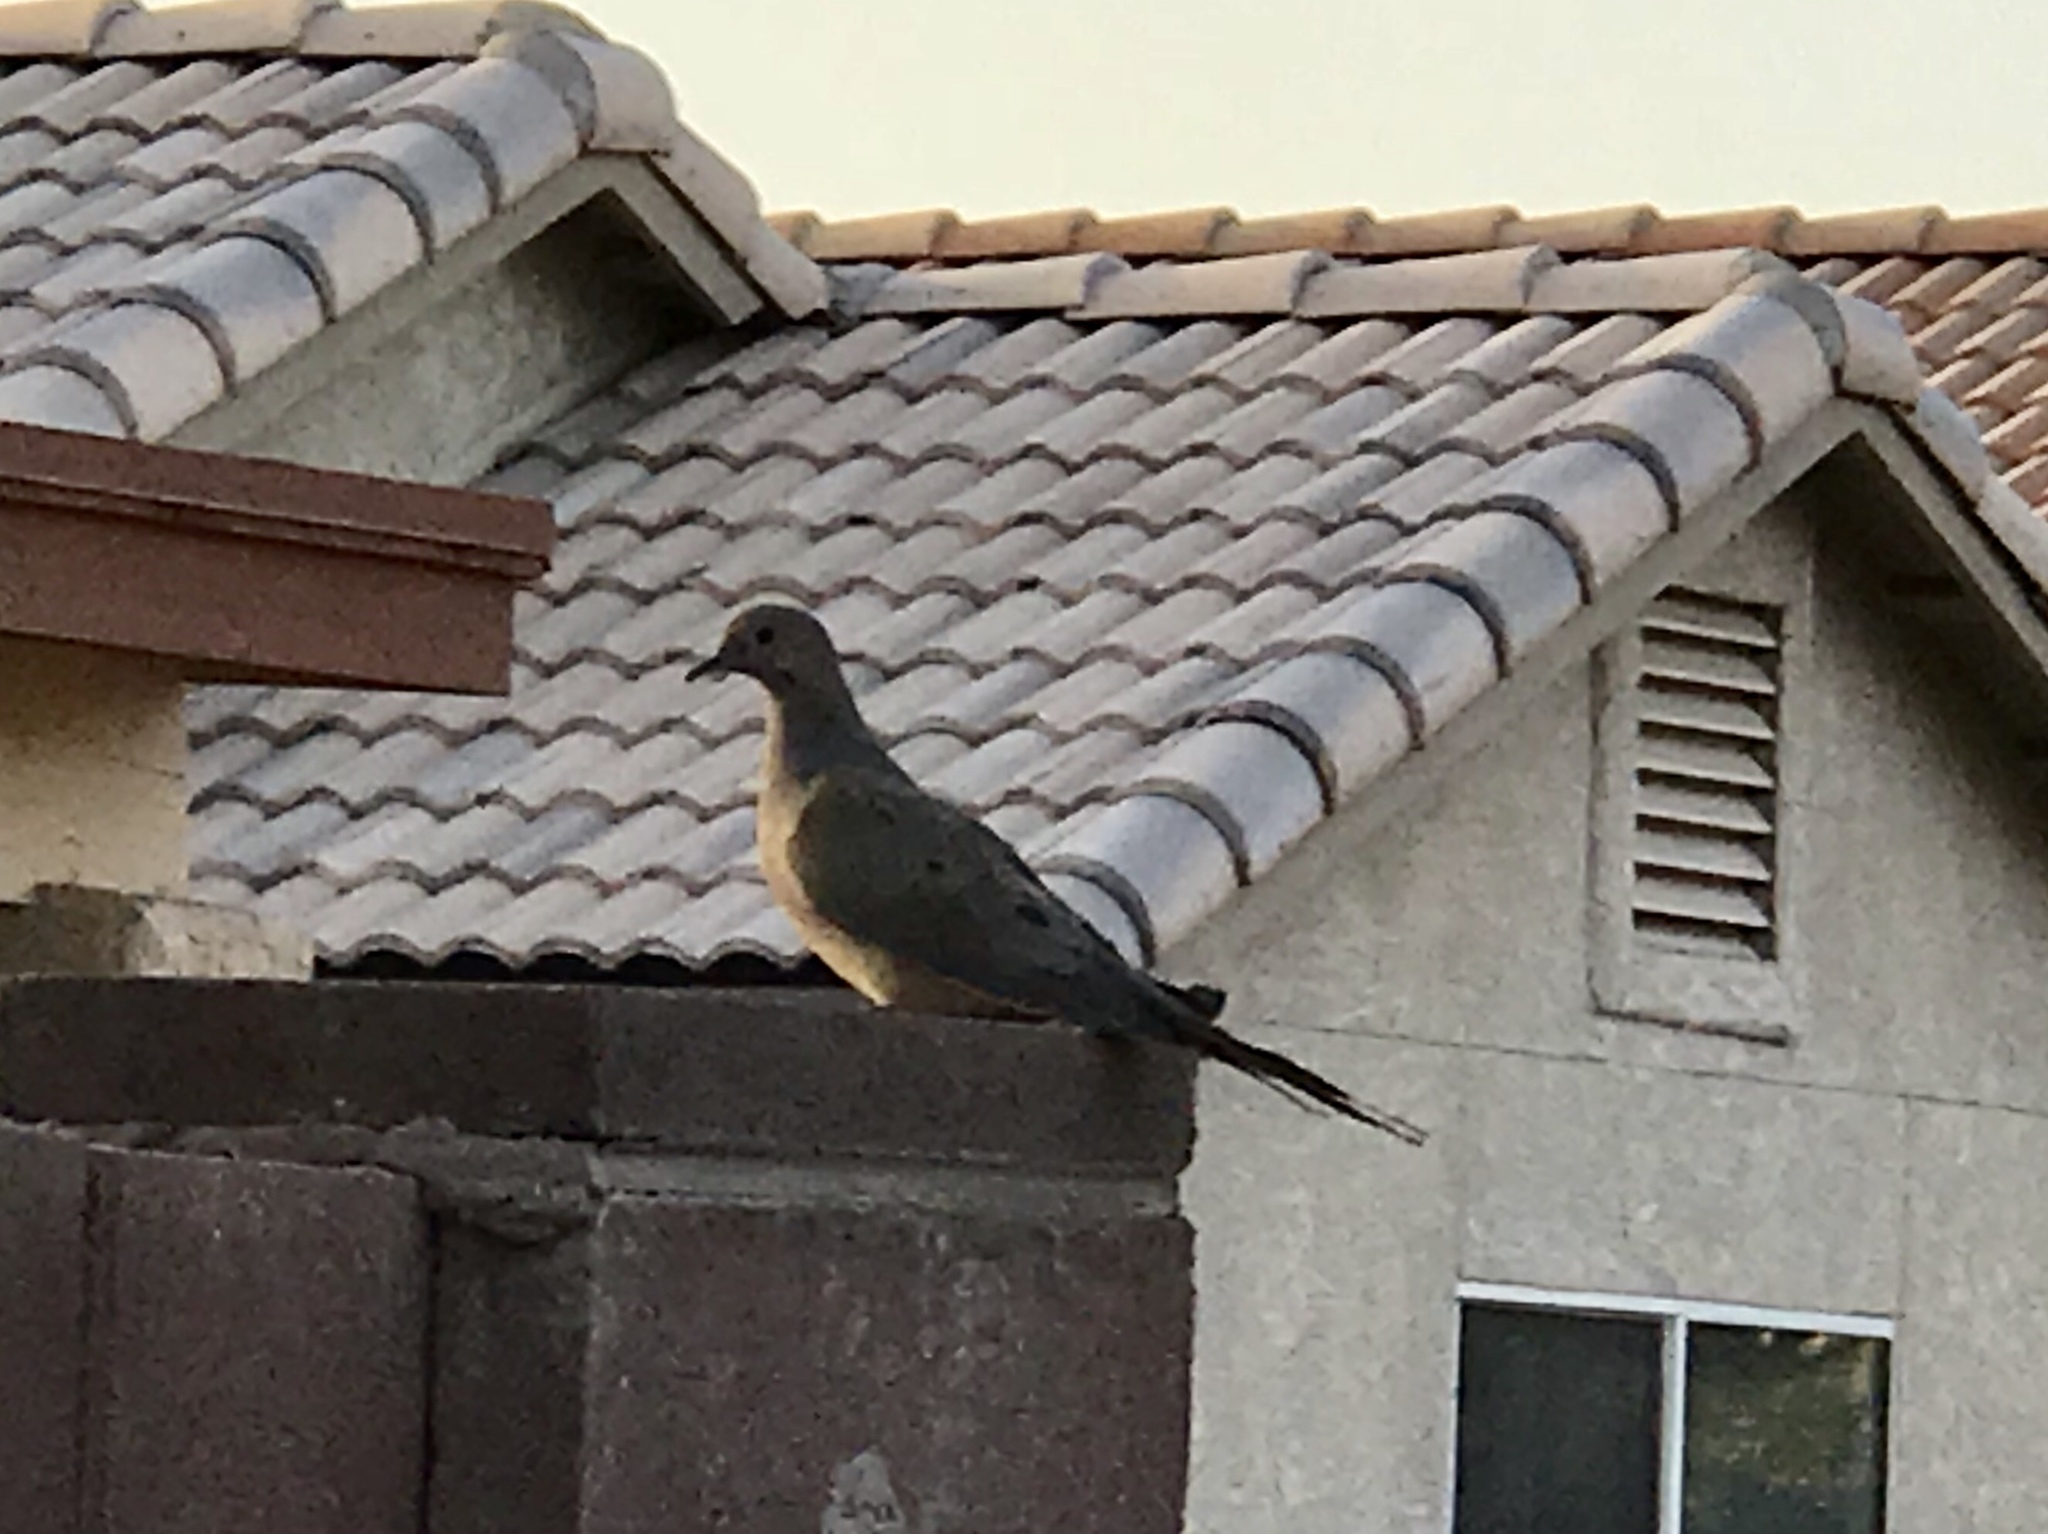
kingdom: Animalia
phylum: Chordata
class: Aves
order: Columbiformes
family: Columbidae
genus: Zenaida
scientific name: Zenaida macroura
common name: Mourning dove
